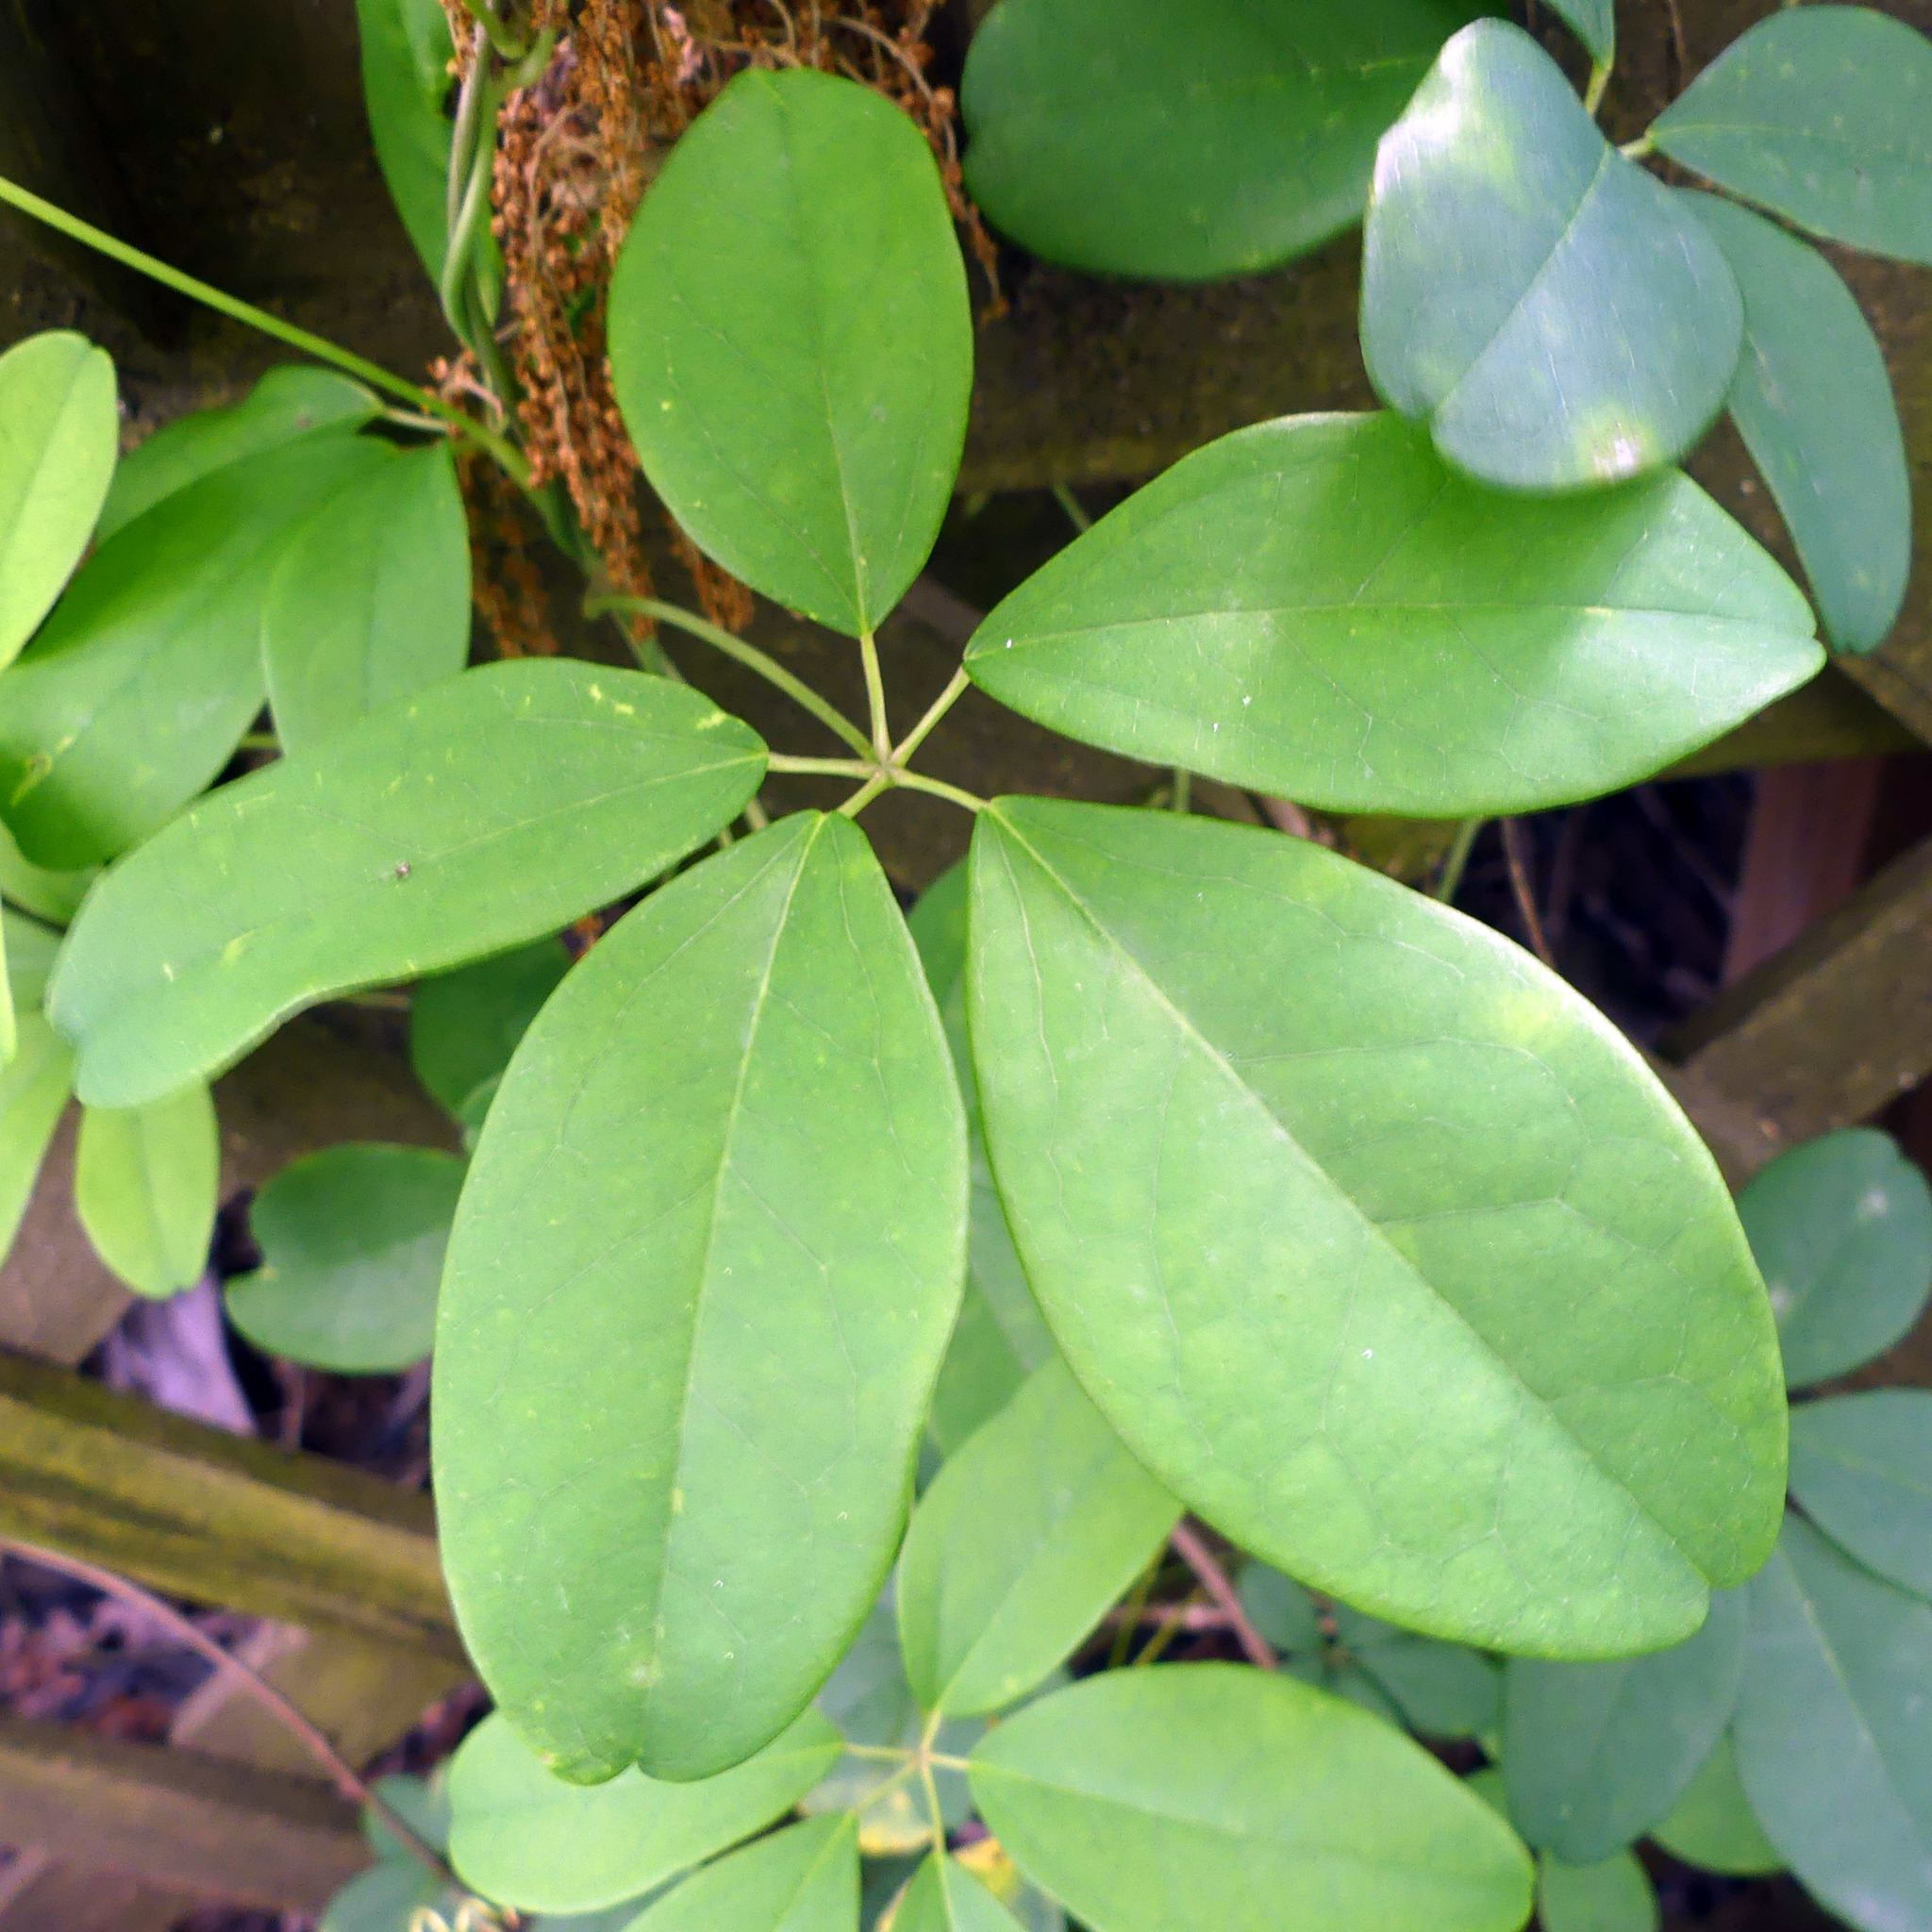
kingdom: Plantae
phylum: Tracheophyta
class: Magnoliopsida
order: Ranunculales
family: Lardizabalaceae
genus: Akebia
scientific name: Akebia quinata
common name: Five-leaf akebia
